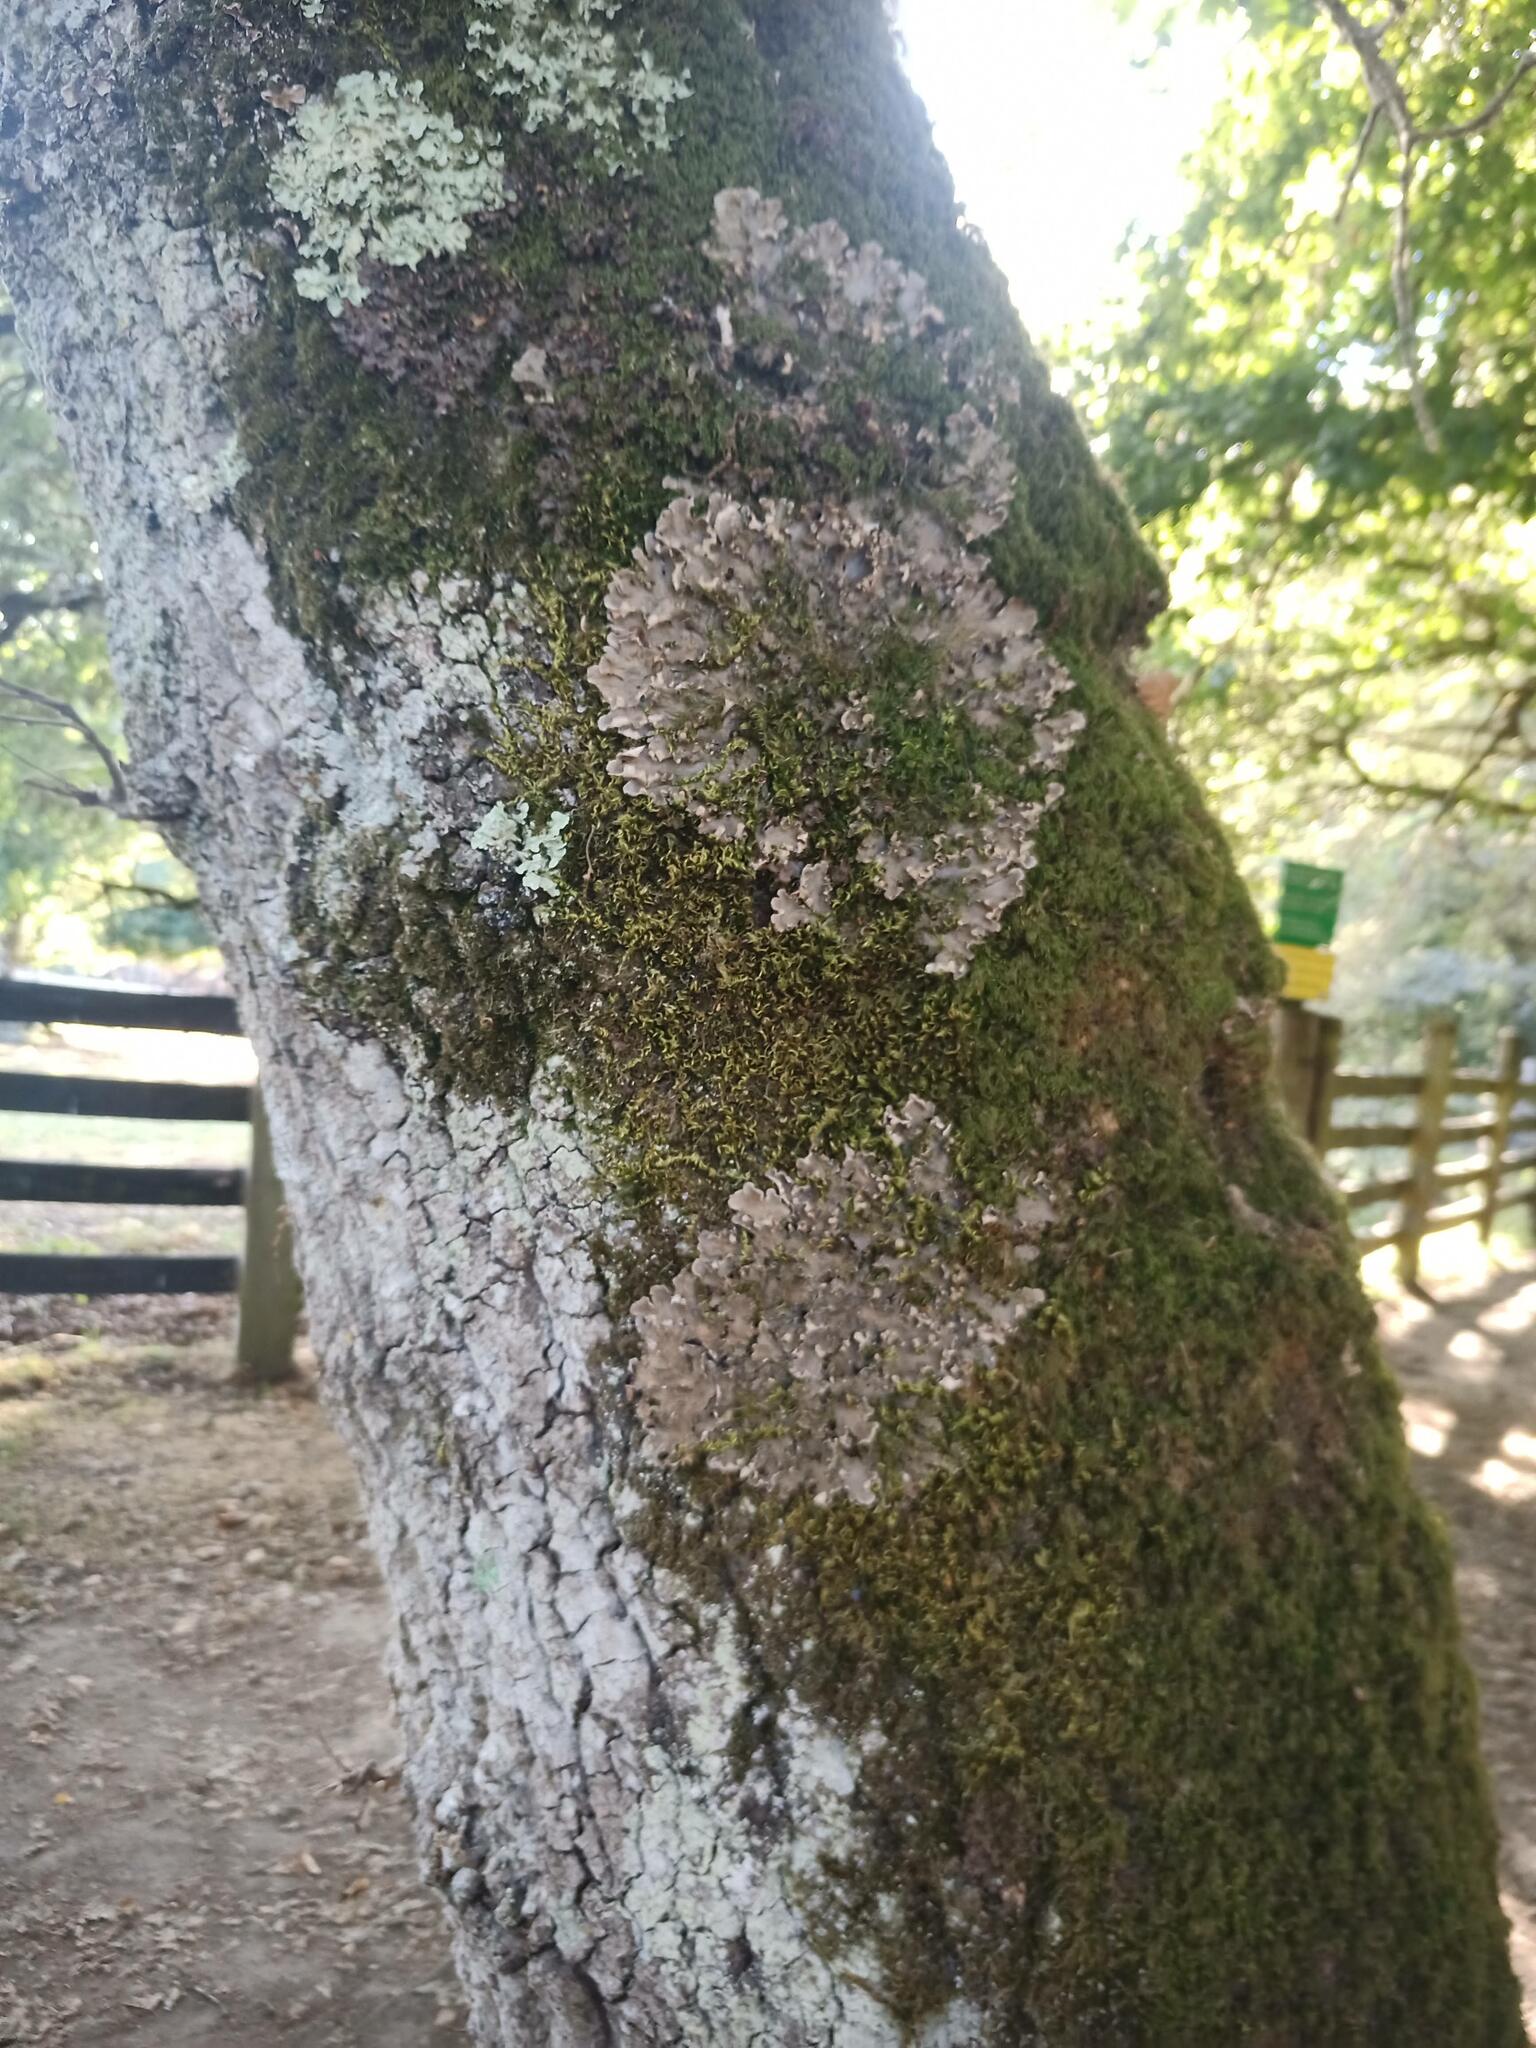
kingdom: Fungi
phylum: Ascomycota
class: Lecanoromycetes
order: Peltigerales
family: Peltigeraceae
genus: Peltigera
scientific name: Peltigera praetextata
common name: Scaly dog-lichen
